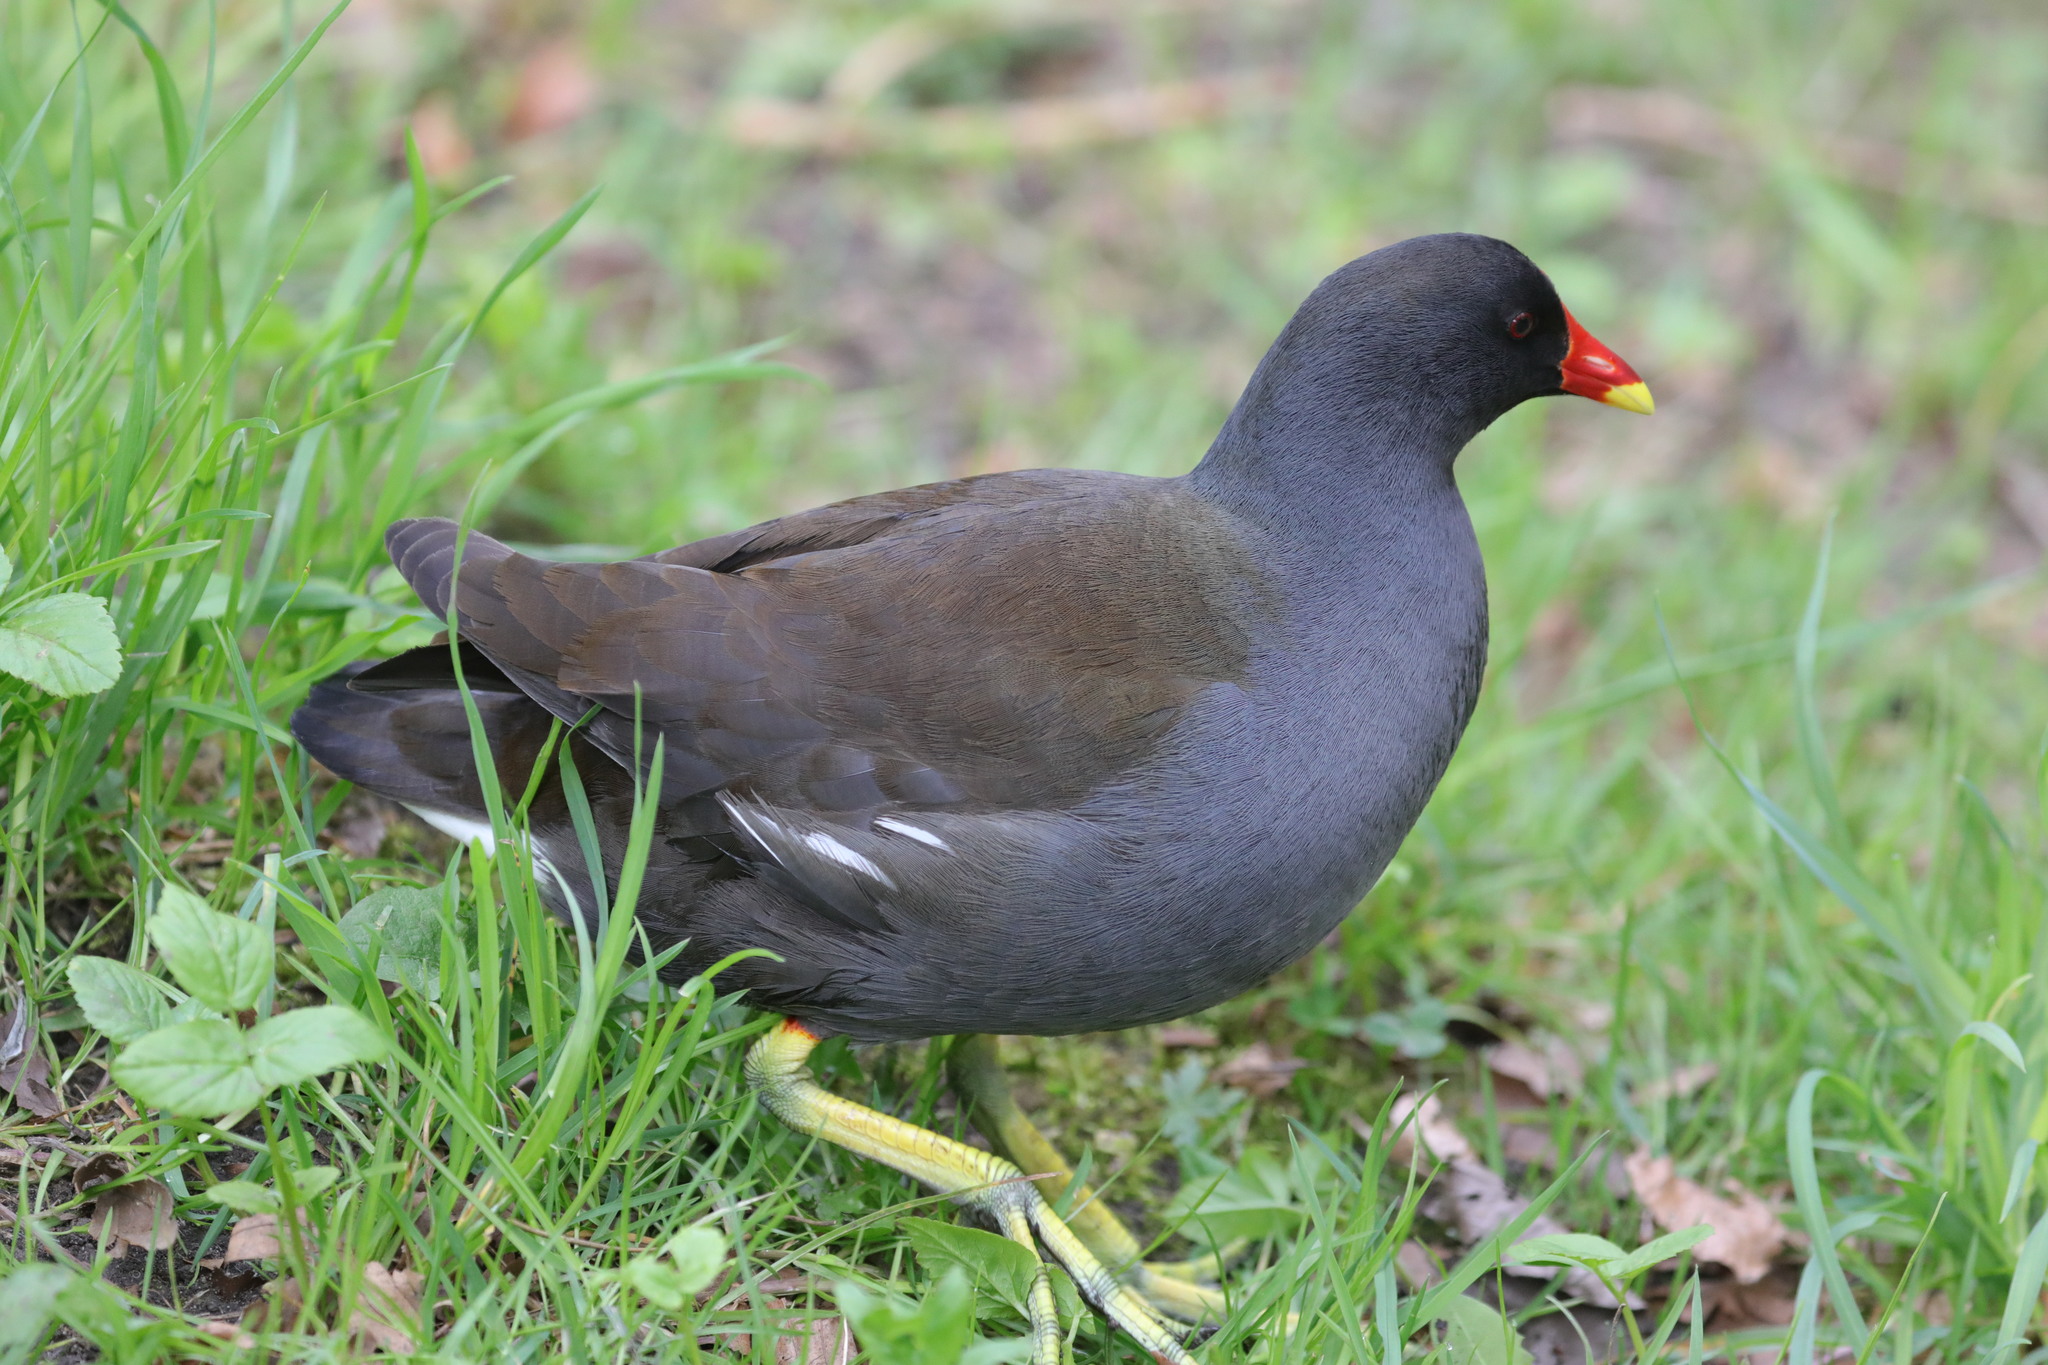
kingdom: Animalia
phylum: Chordata
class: Aves
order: Gruiformes
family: Rallidae
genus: Gallinula
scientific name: Gallinula chloropus
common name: Common moorhen
